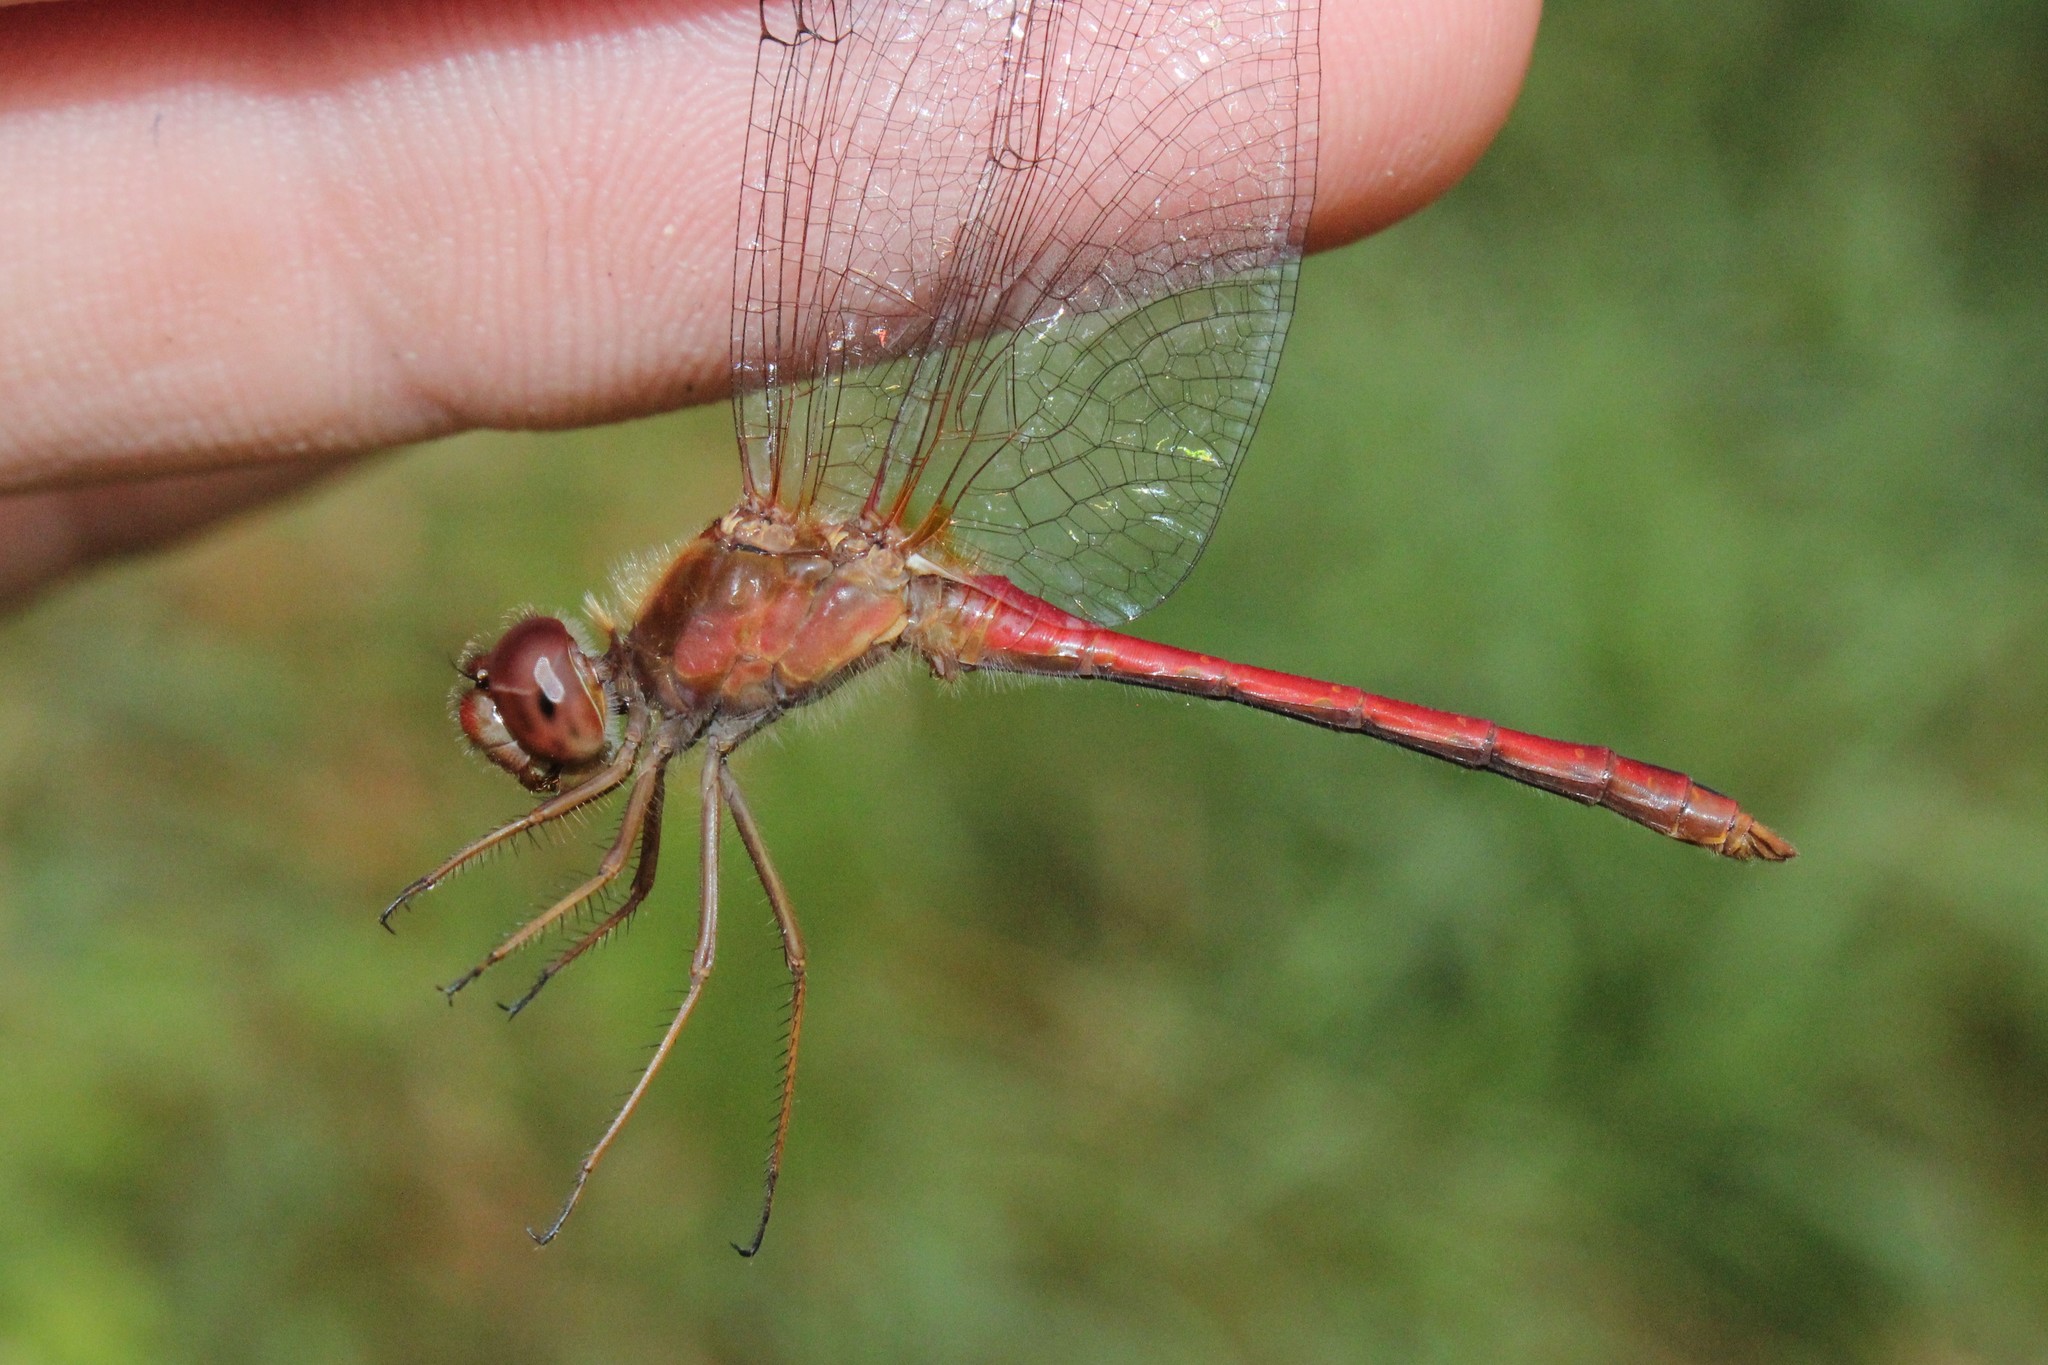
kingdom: Animalia
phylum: Arthropoda
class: Insecta
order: Odonata
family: Libellulidae
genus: Sympetrum
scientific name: Sympetrum vicinum
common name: Autumn meadowhawk
